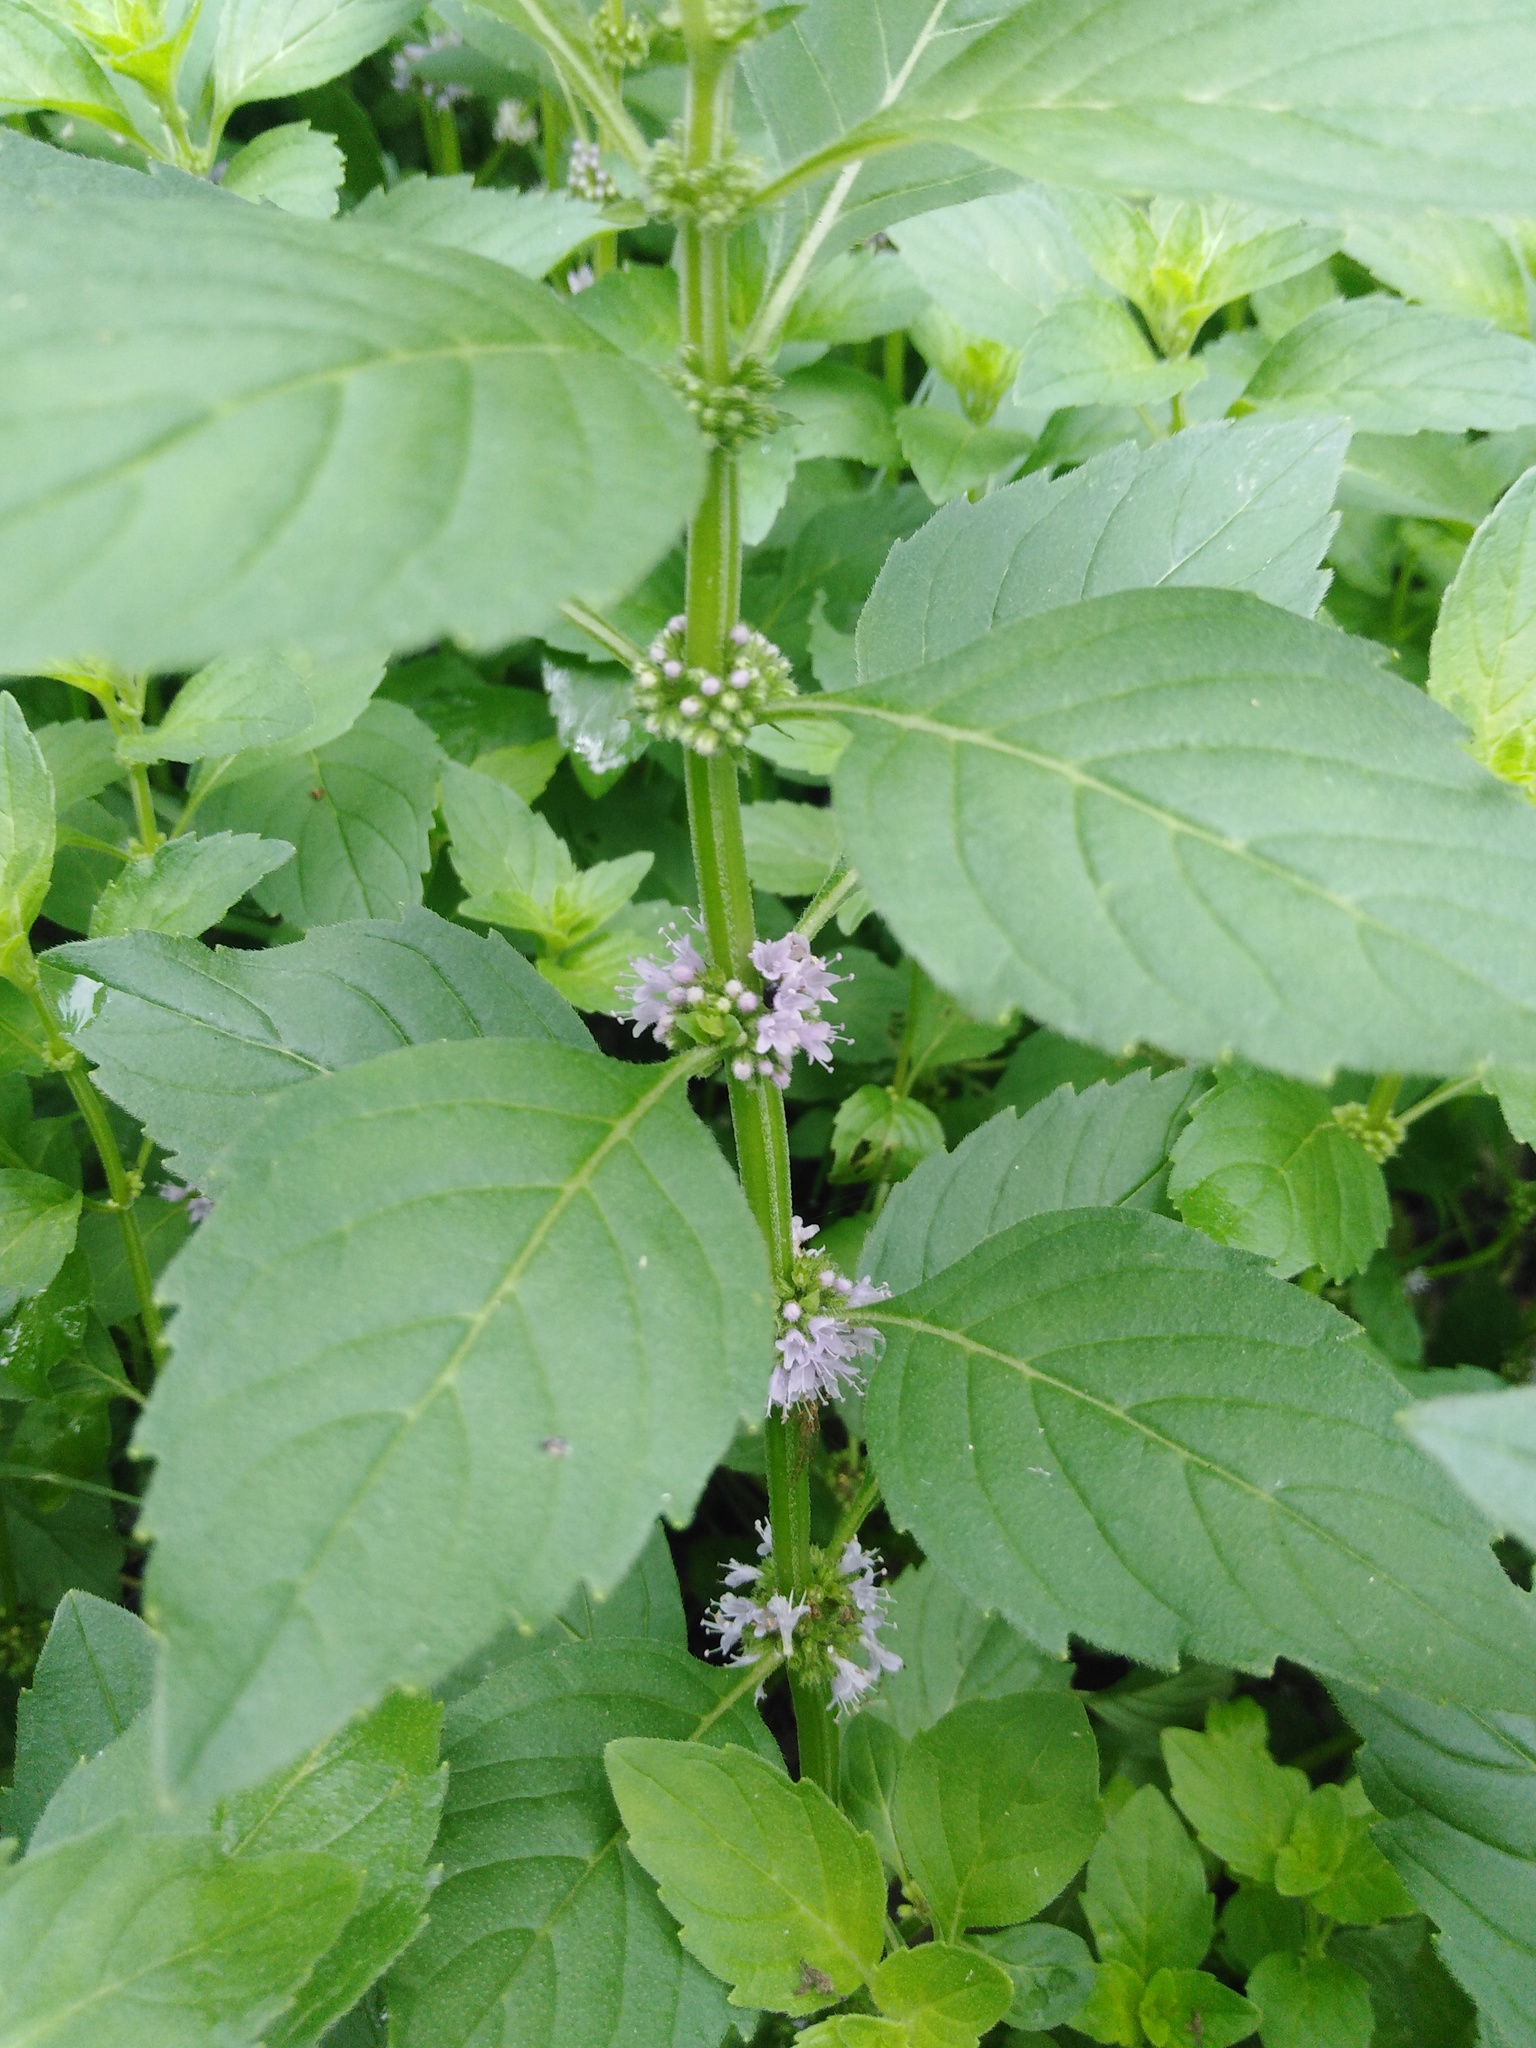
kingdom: Plantae
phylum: Tracheophyta
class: Magnoliopsida
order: Lamiales
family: Lamiaceae
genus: Mentha
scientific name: Mentha arvensis
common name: Corn mint
